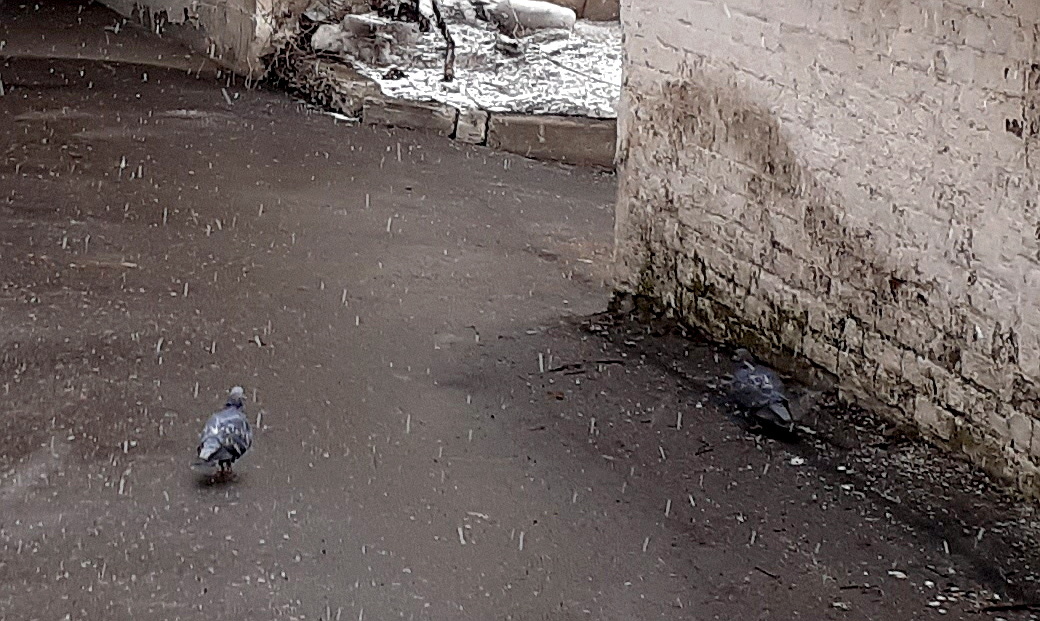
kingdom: Animalia
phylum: Chordata
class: Aves
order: Columbiformes
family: Columbidae
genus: Columba
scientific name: Columba livia
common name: Rock pigeon
